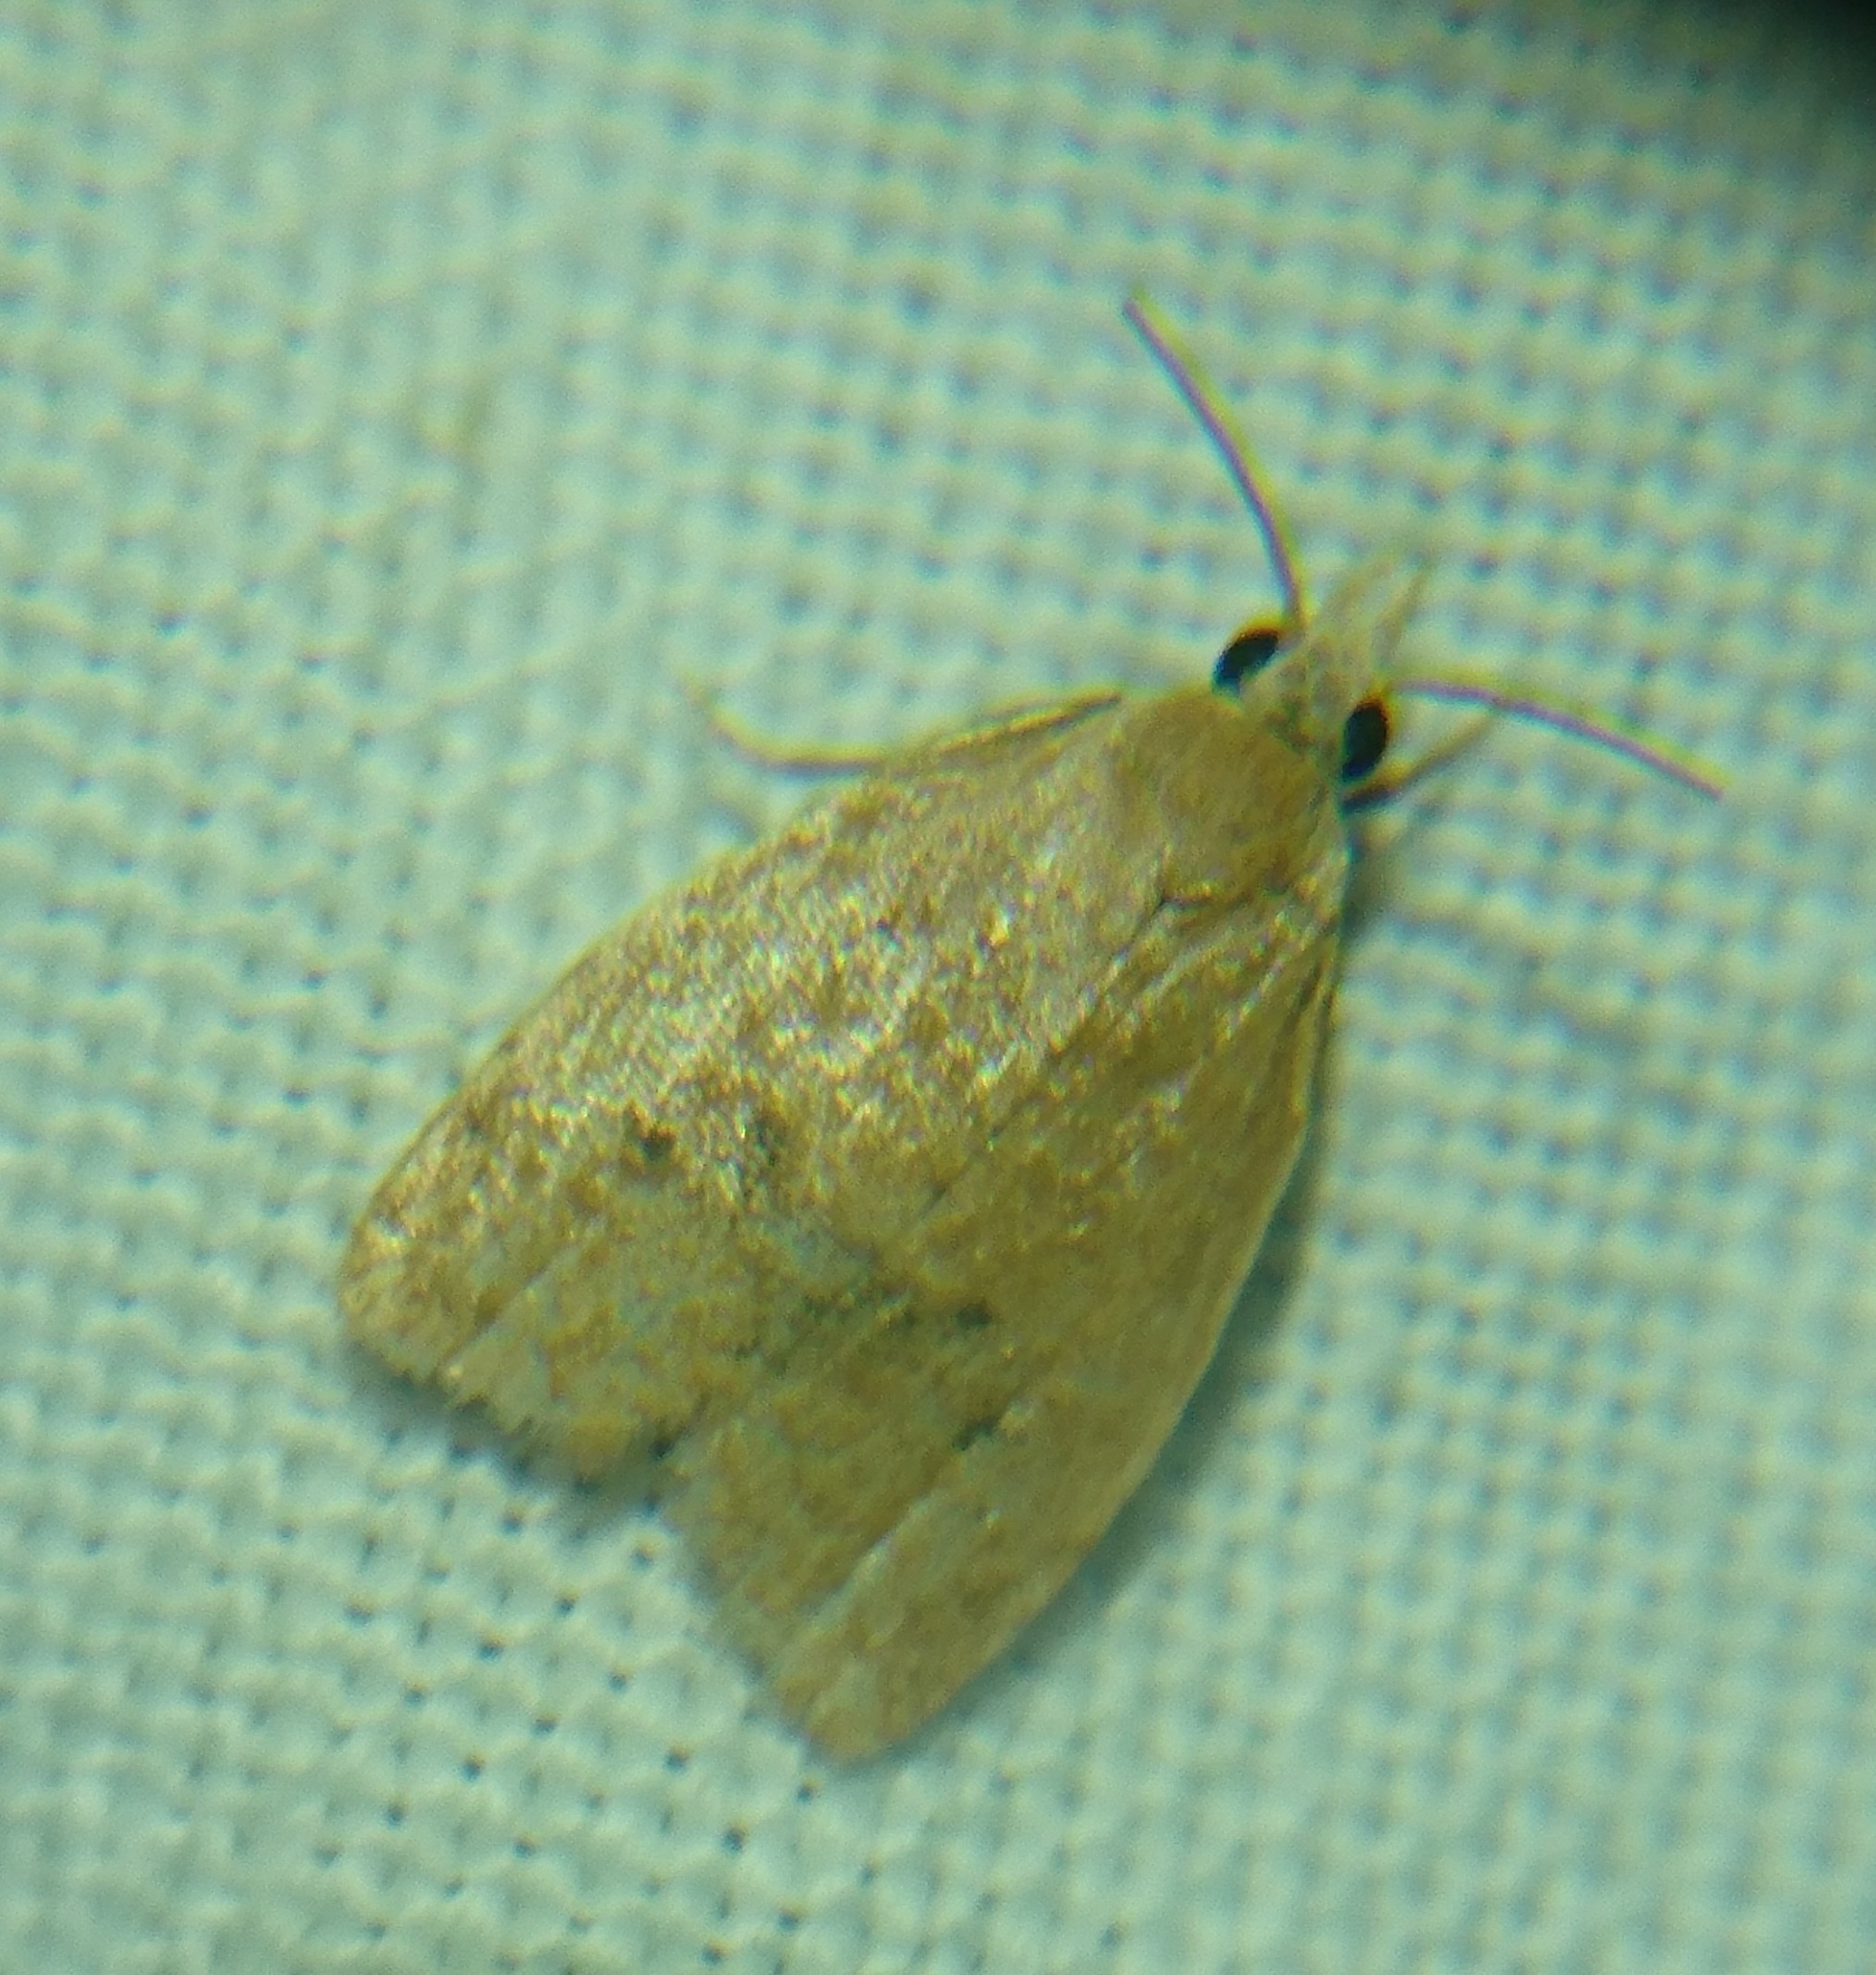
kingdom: Animalia
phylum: Arthropoda
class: Insecta
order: Lepidoptera
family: Tortricidae
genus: Coelostathma
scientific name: Coelostathma discopunctana
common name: Batman moth
